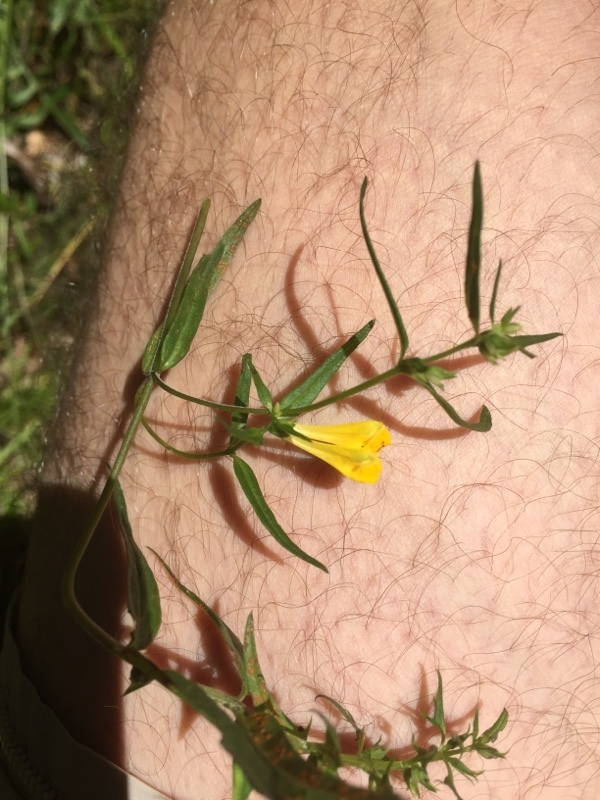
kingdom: Plantae
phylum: Tracheophyta
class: Magnoliopsida
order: Lamiales
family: Orobanchaceae
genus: Melampyrum
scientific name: Melampyrum pratense
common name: Common cow-wheat
